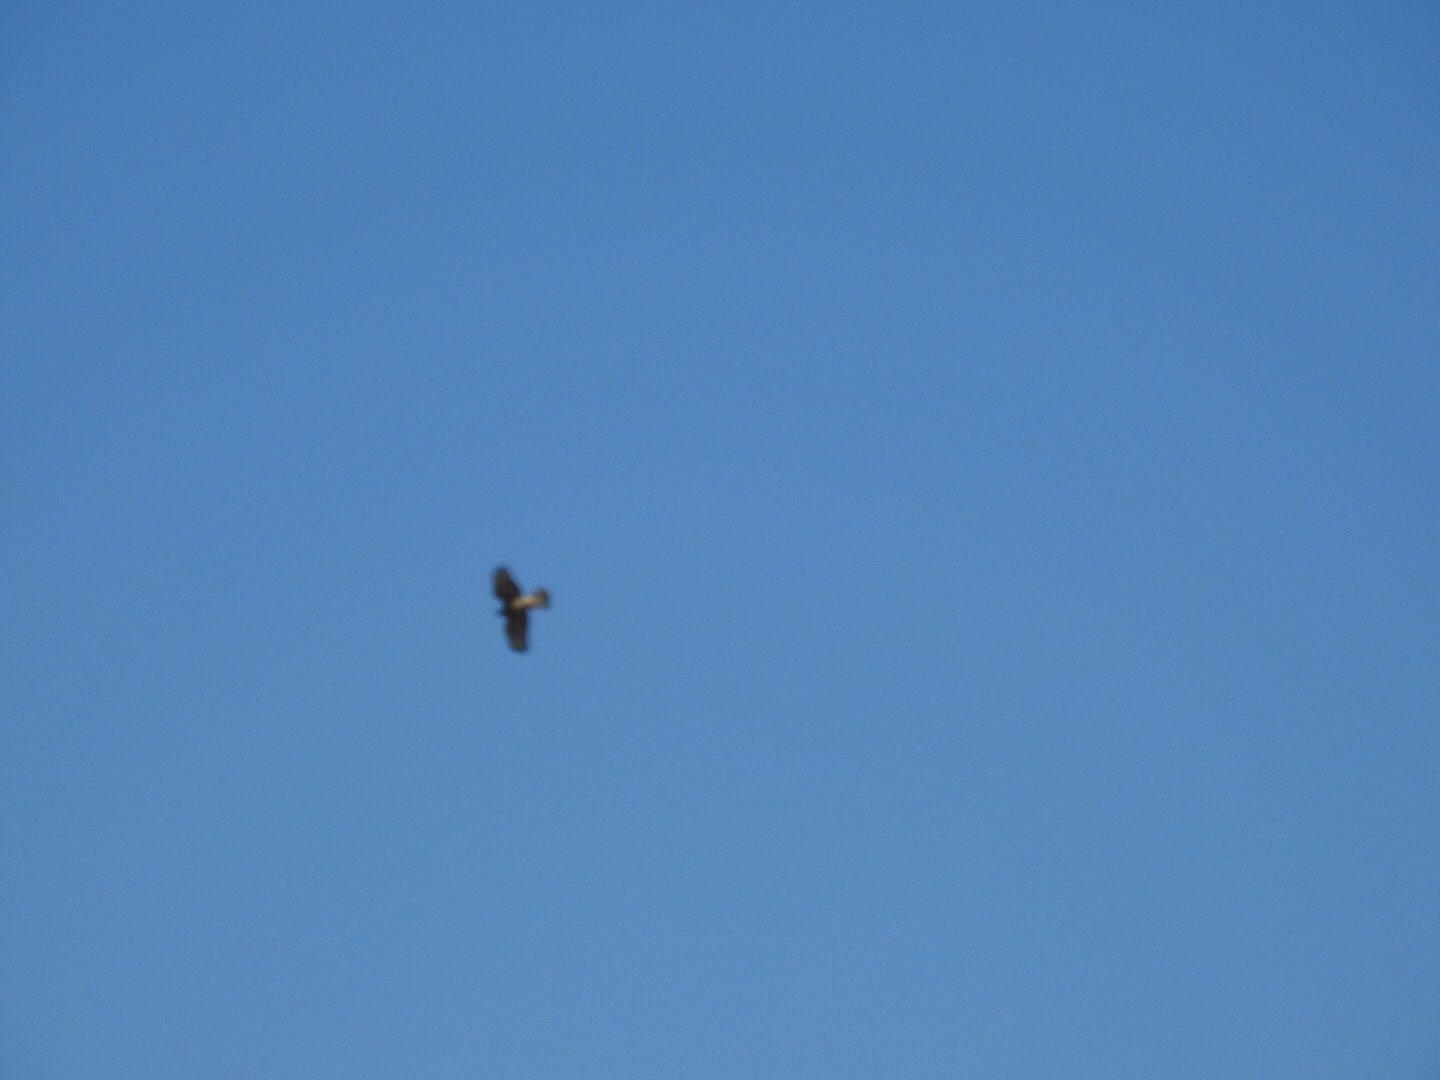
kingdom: Animalia
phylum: Chordata
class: Aves
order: Accipitriformes
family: Accipitridae
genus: Buteo
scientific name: Buteo lineatus
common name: Red-shouldered hawk
